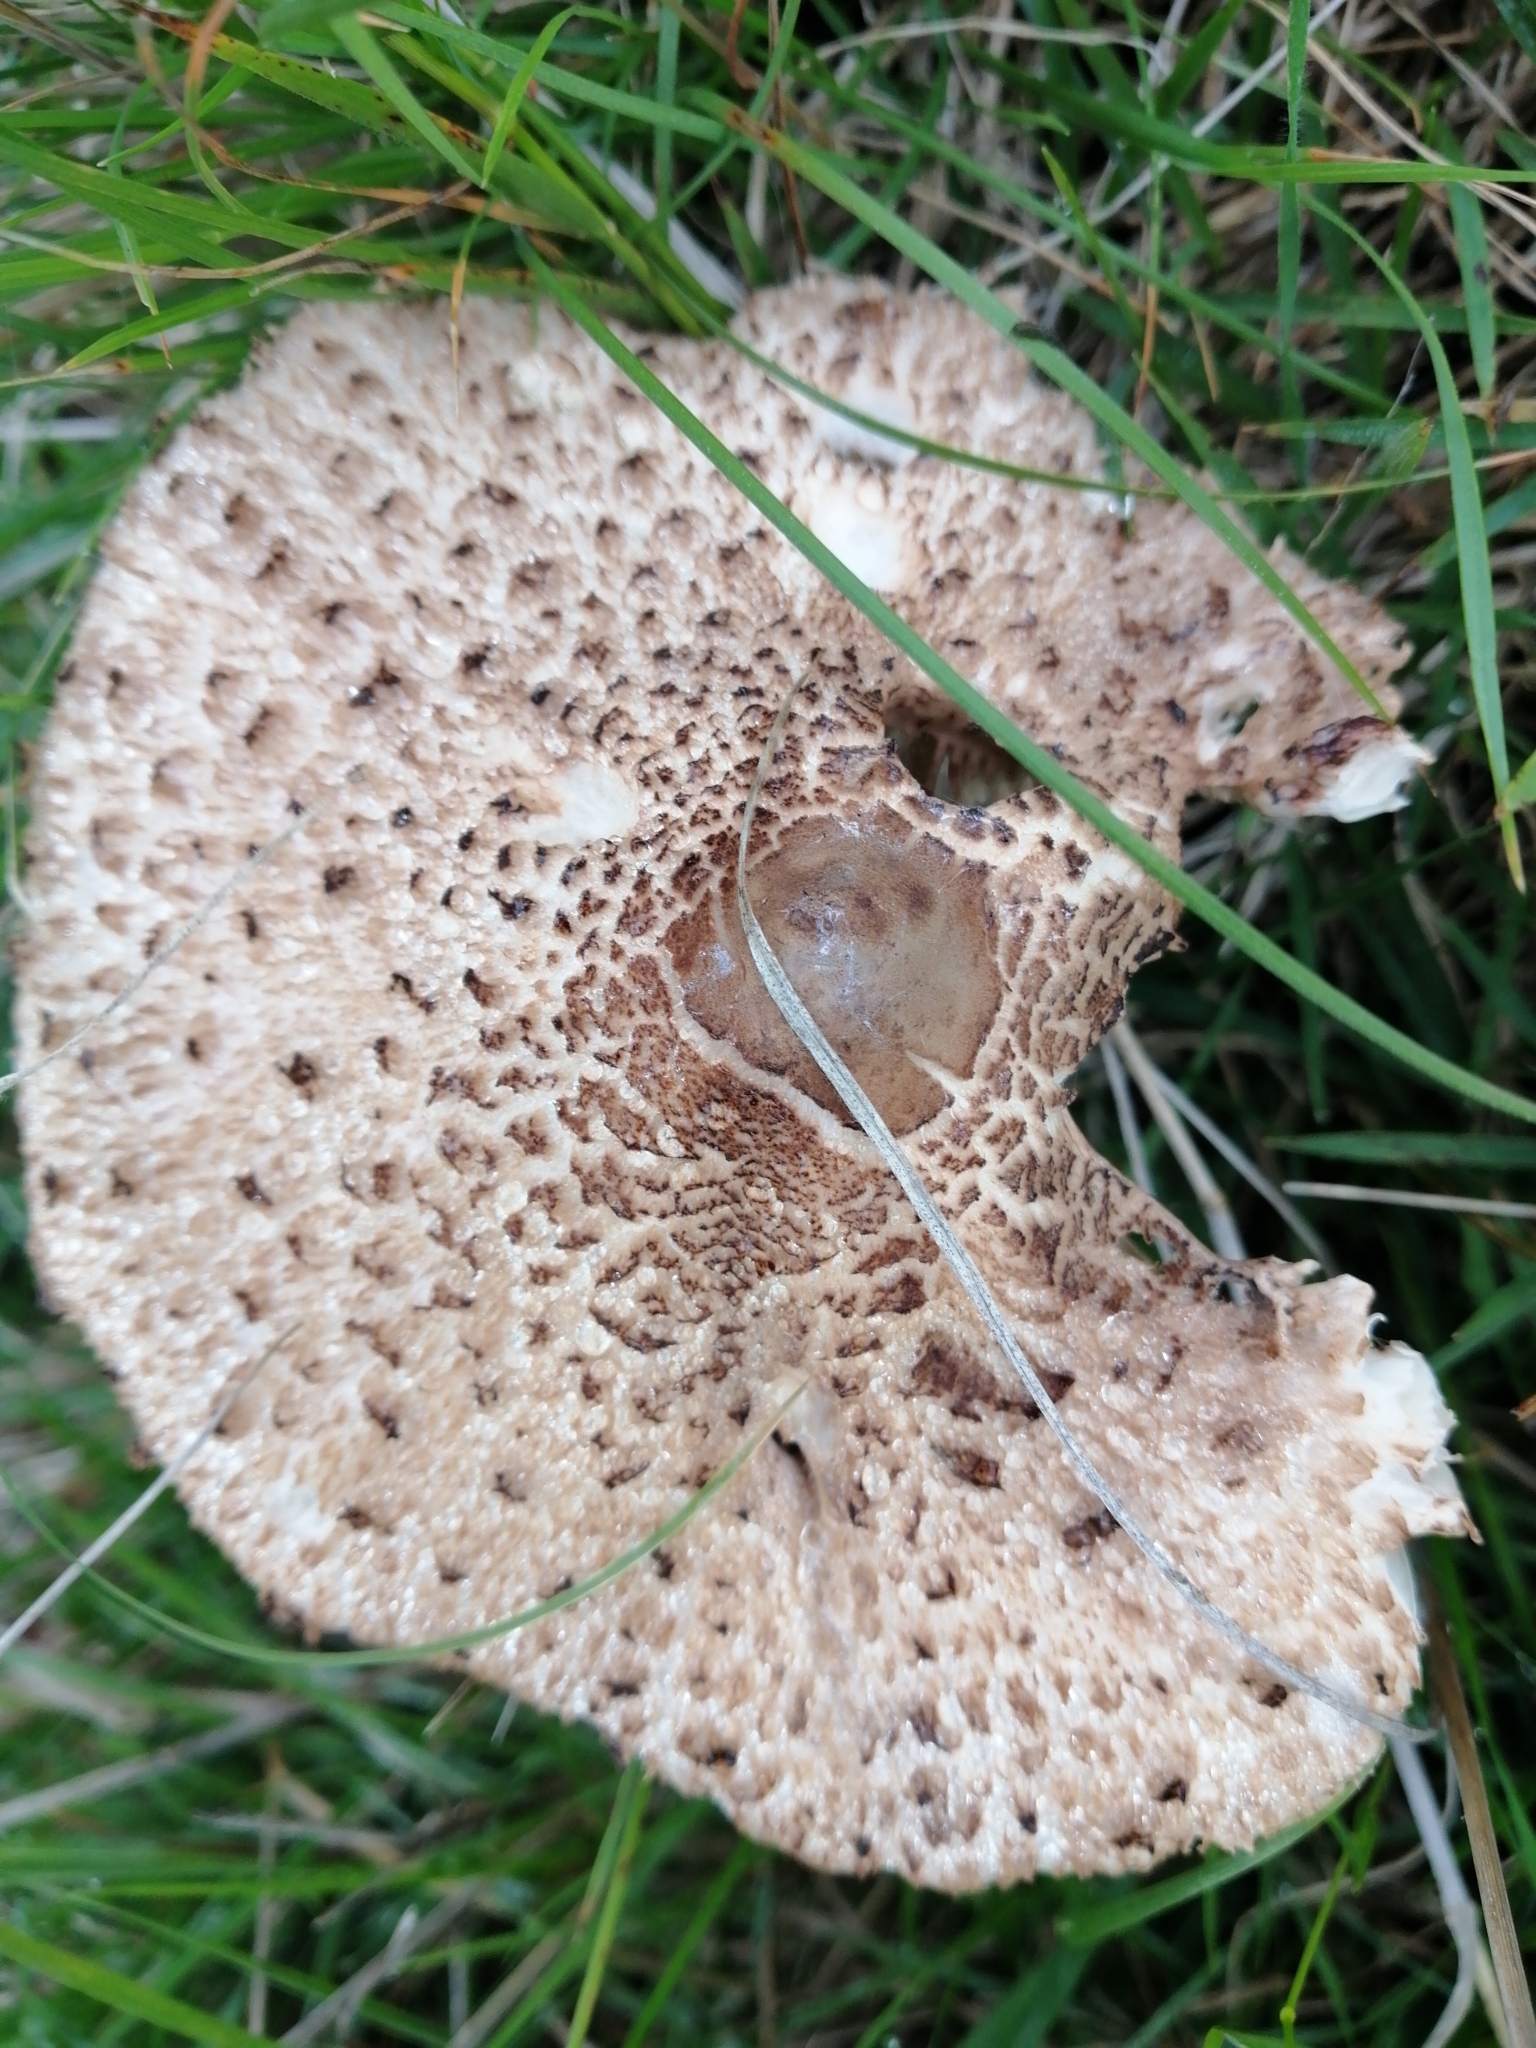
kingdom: Fungi
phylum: Basidiomycota
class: Agaricomycetes
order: Agaricales
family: Agaricaceae
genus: Macrolepiota
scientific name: Macrolepiota clelandii
